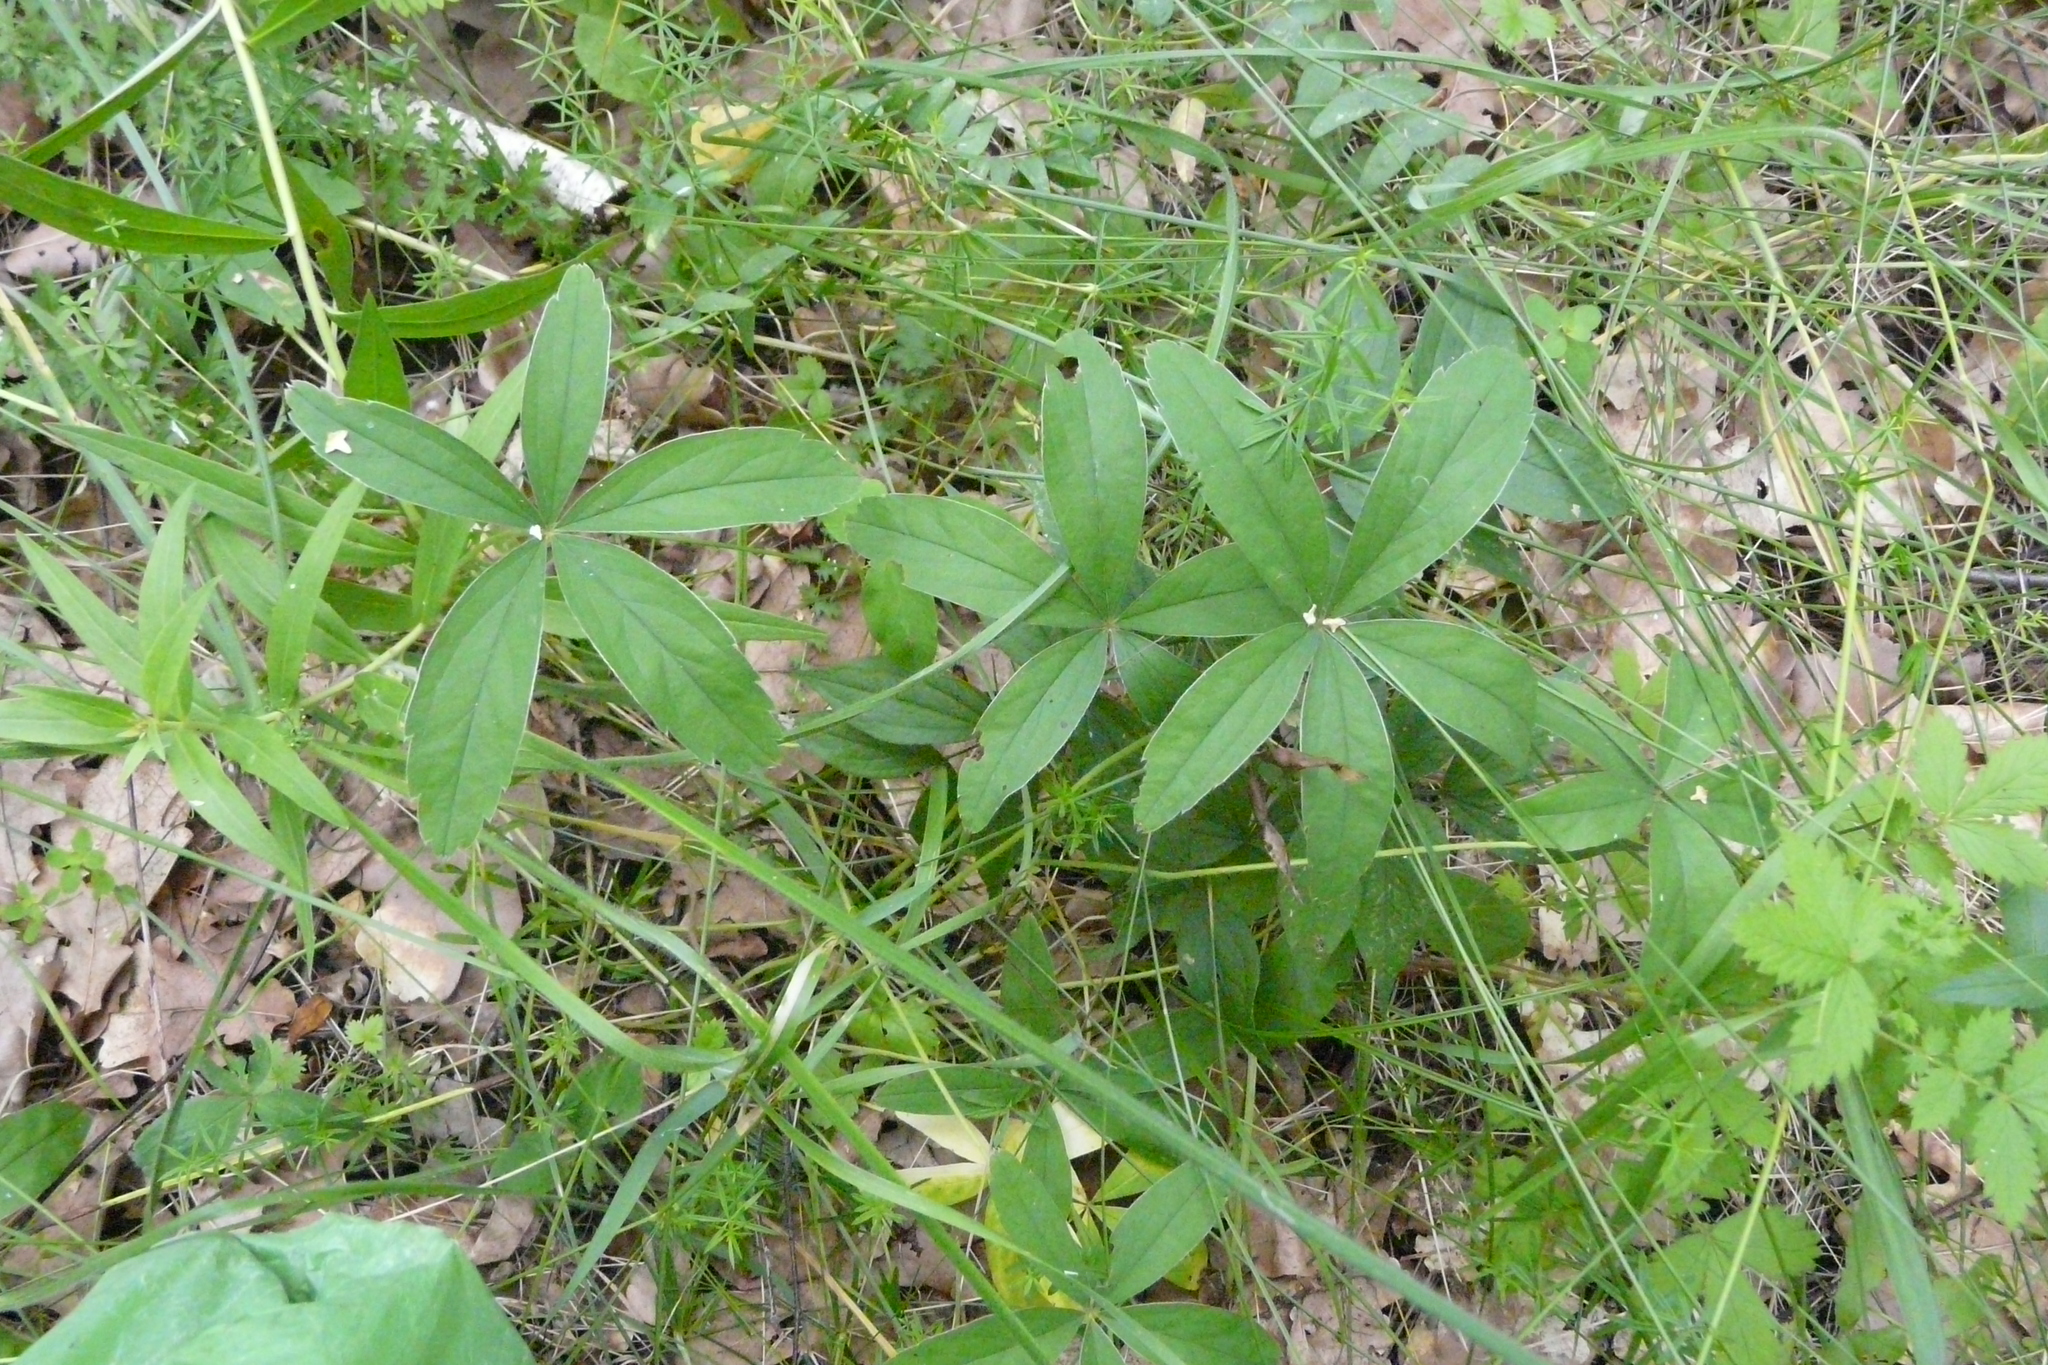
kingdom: Plantae
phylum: Tracheophyta
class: Magnoliopsida
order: Rosales
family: Rosaceae
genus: Potentilla
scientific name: Potentilla alba
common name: White cinquefoil
